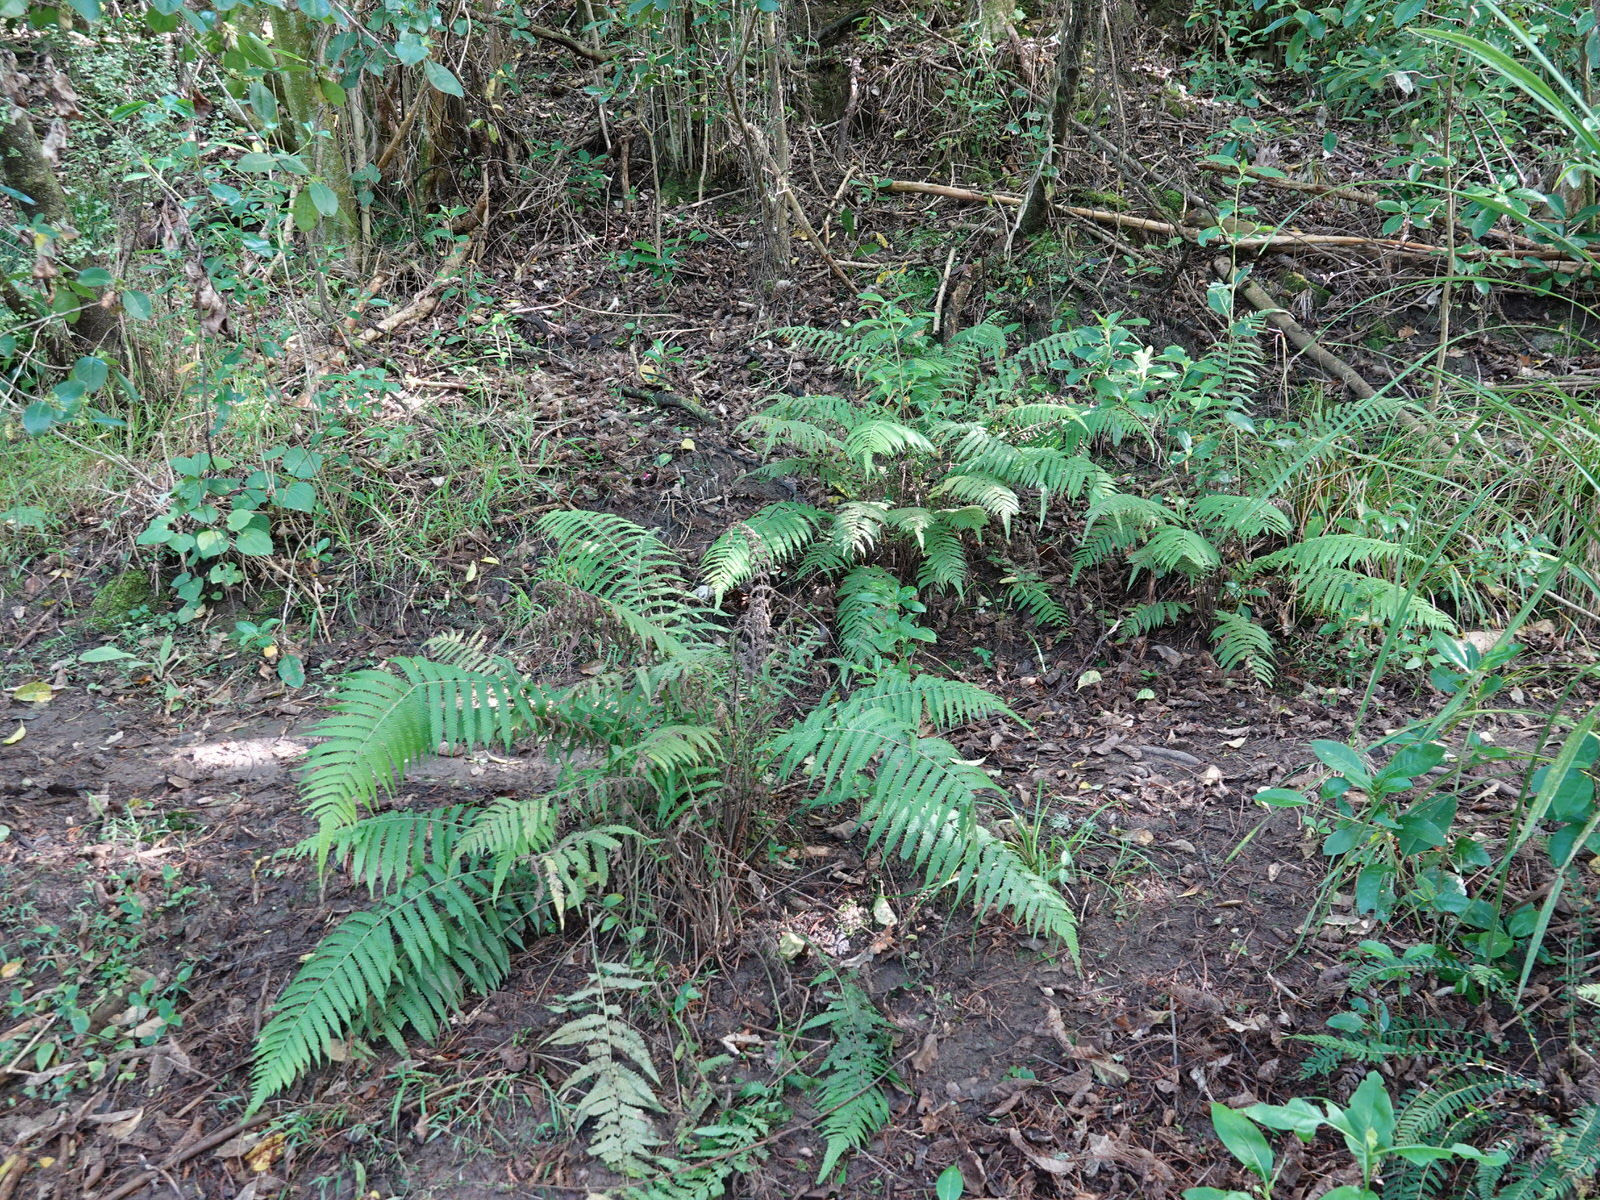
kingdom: Plantae
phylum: Tracheophyta
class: Polypodiopsida
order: Polypodiales
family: Thelypteridaceae
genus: Christella
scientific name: Christella dentata
